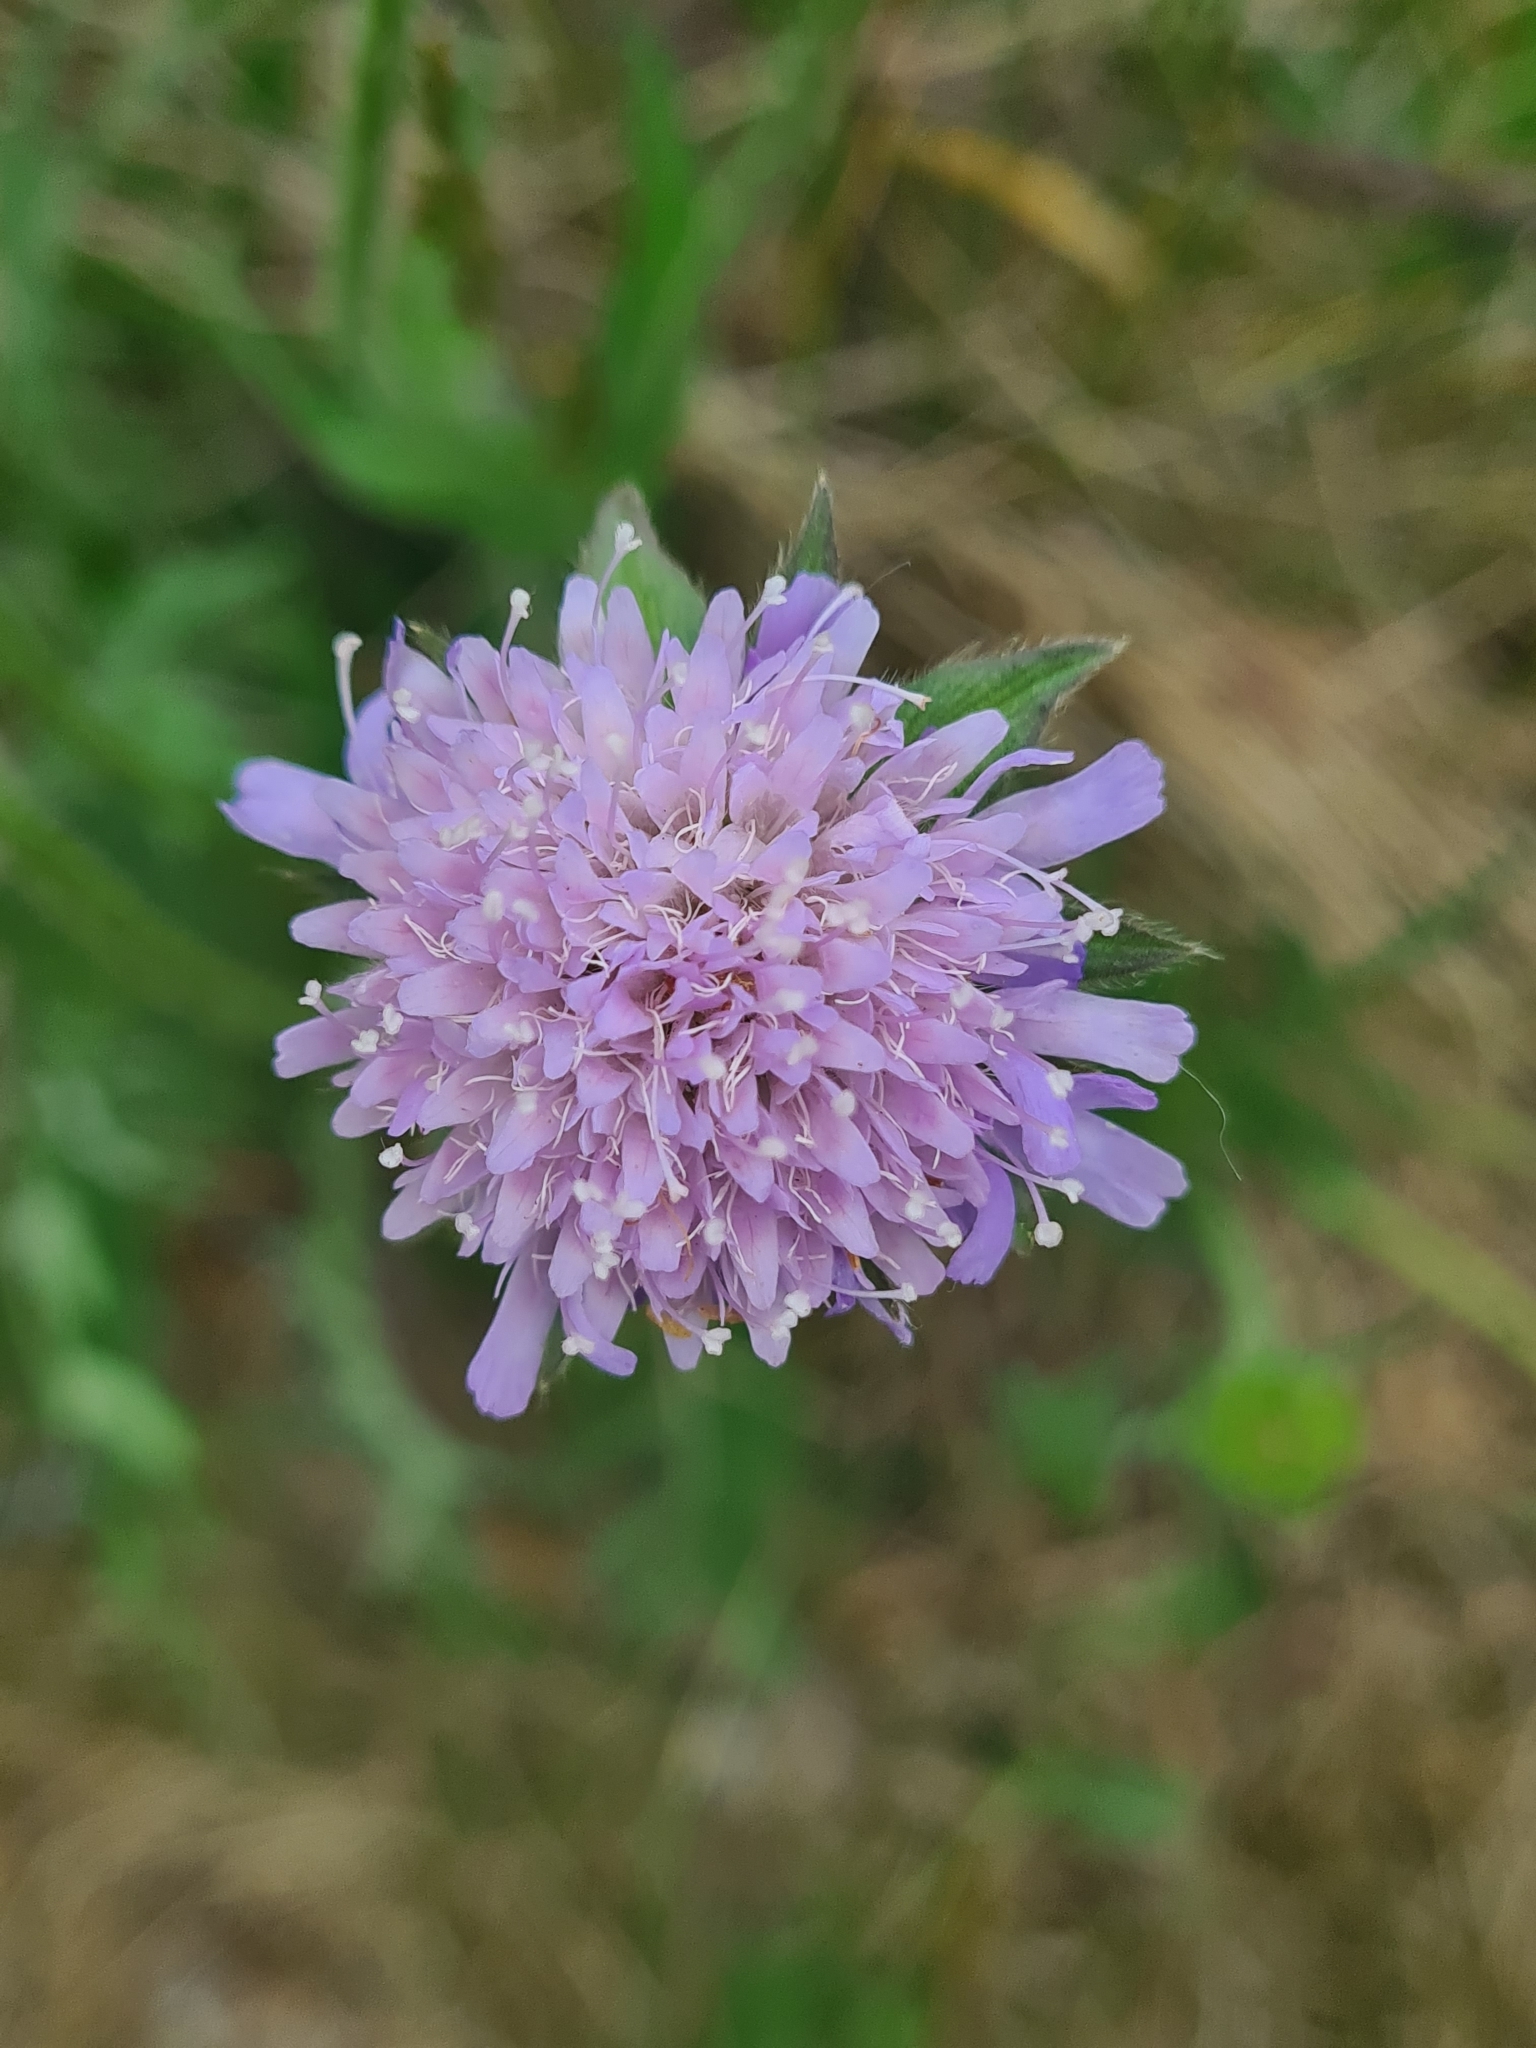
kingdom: Plantae
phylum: Tracheophyta
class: Magnoliopsida
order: Dipsacales
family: Caprifoliaceae
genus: Knautia
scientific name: Knautia arvensis
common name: Field scabiosa
